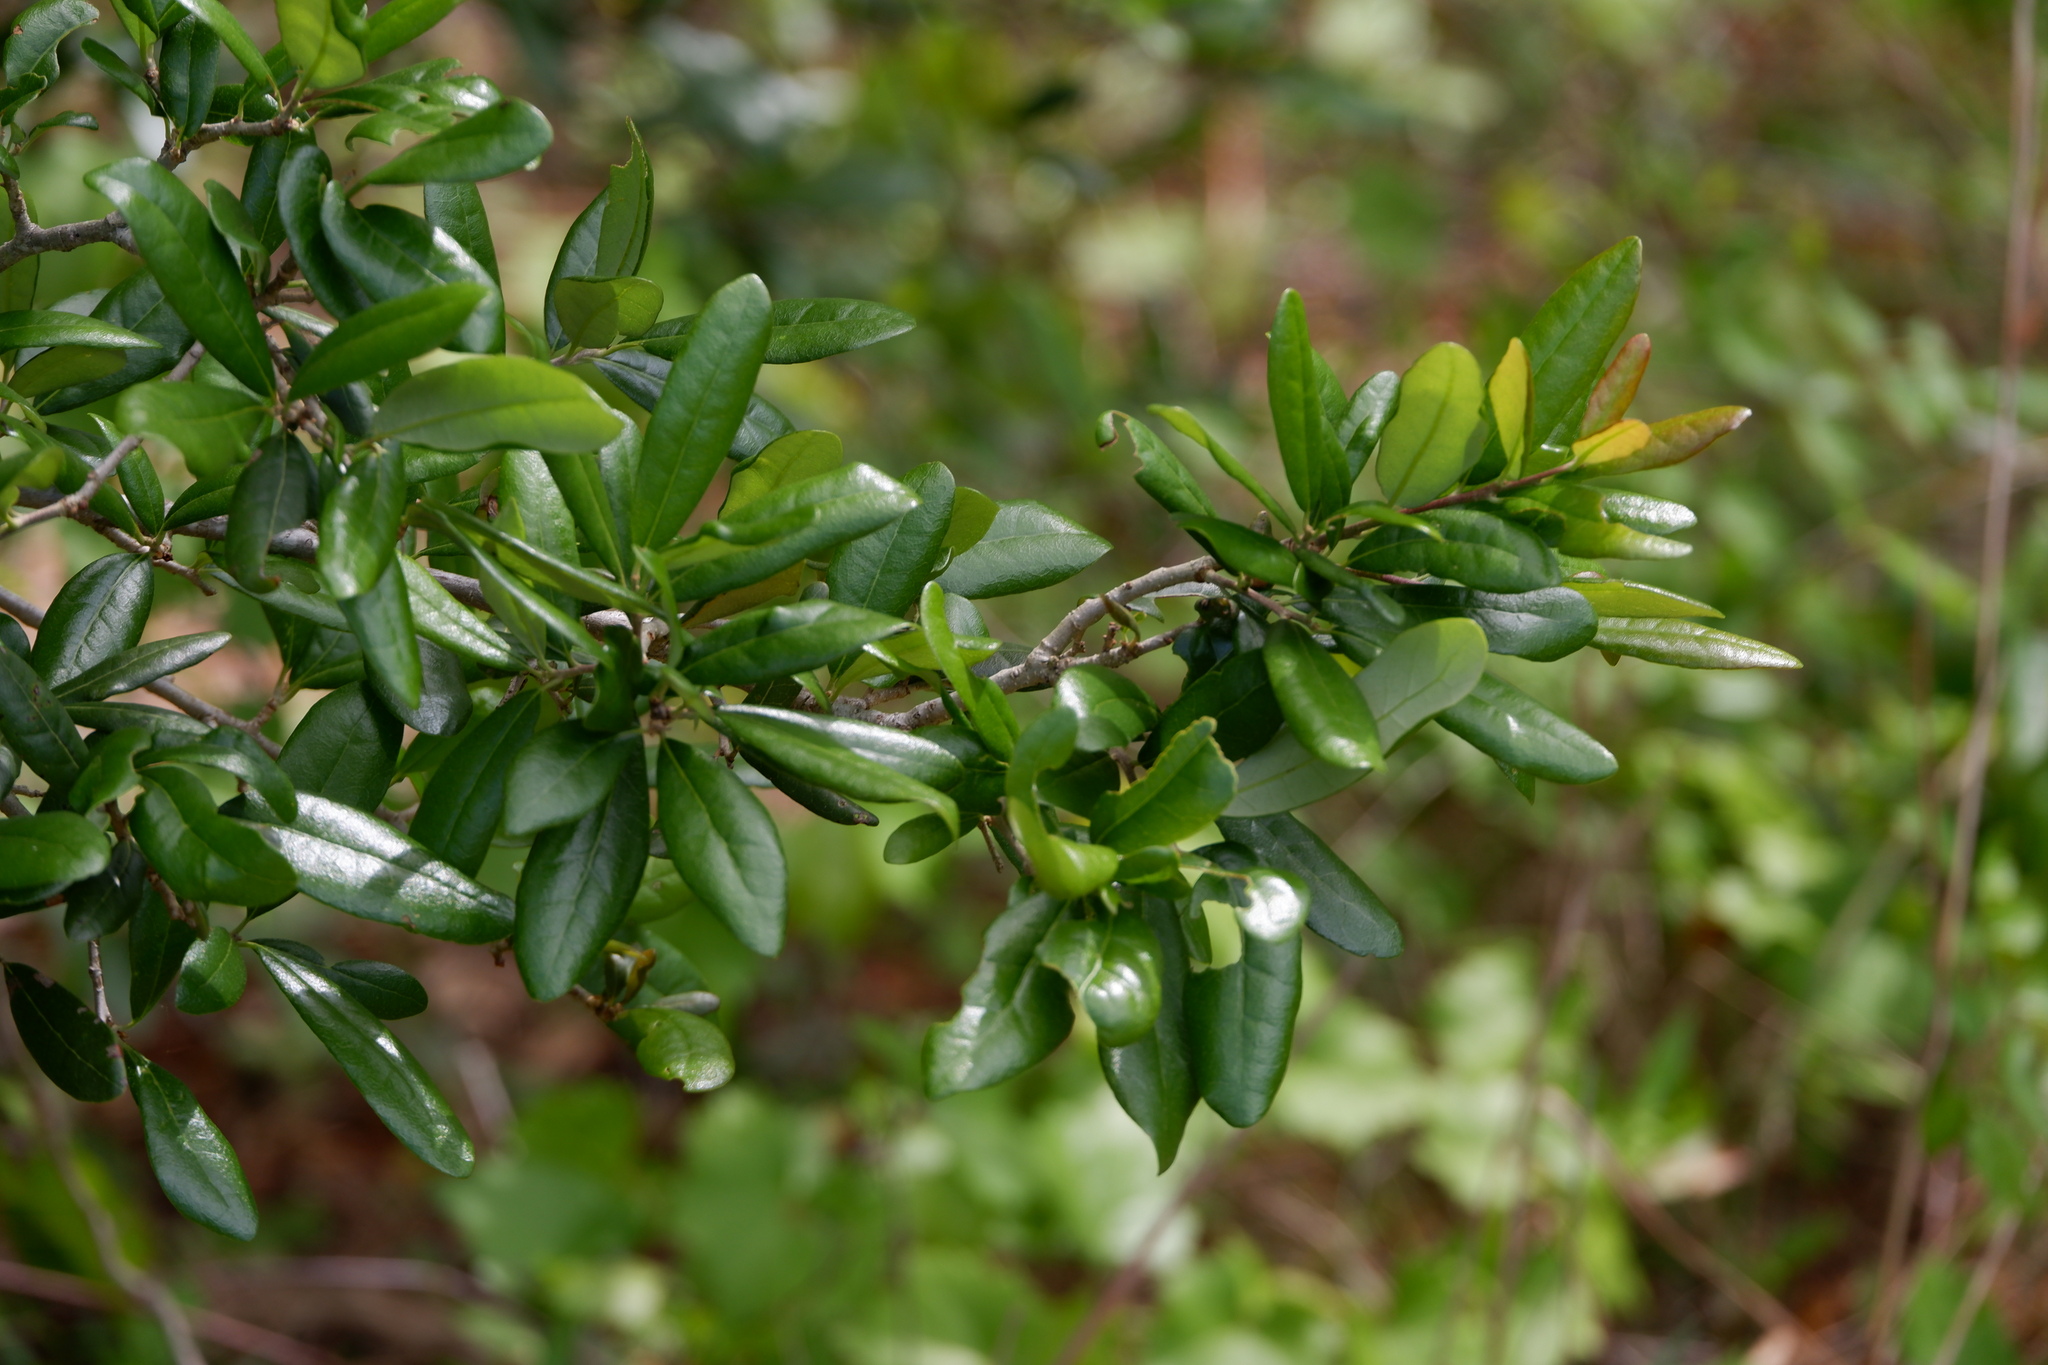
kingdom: Plantae
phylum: Tracheophyta
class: Magnoliopsida
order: Fagales
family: Fagaceae
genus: Quercus
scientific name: Quercus virginiana
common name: Southern live oak
